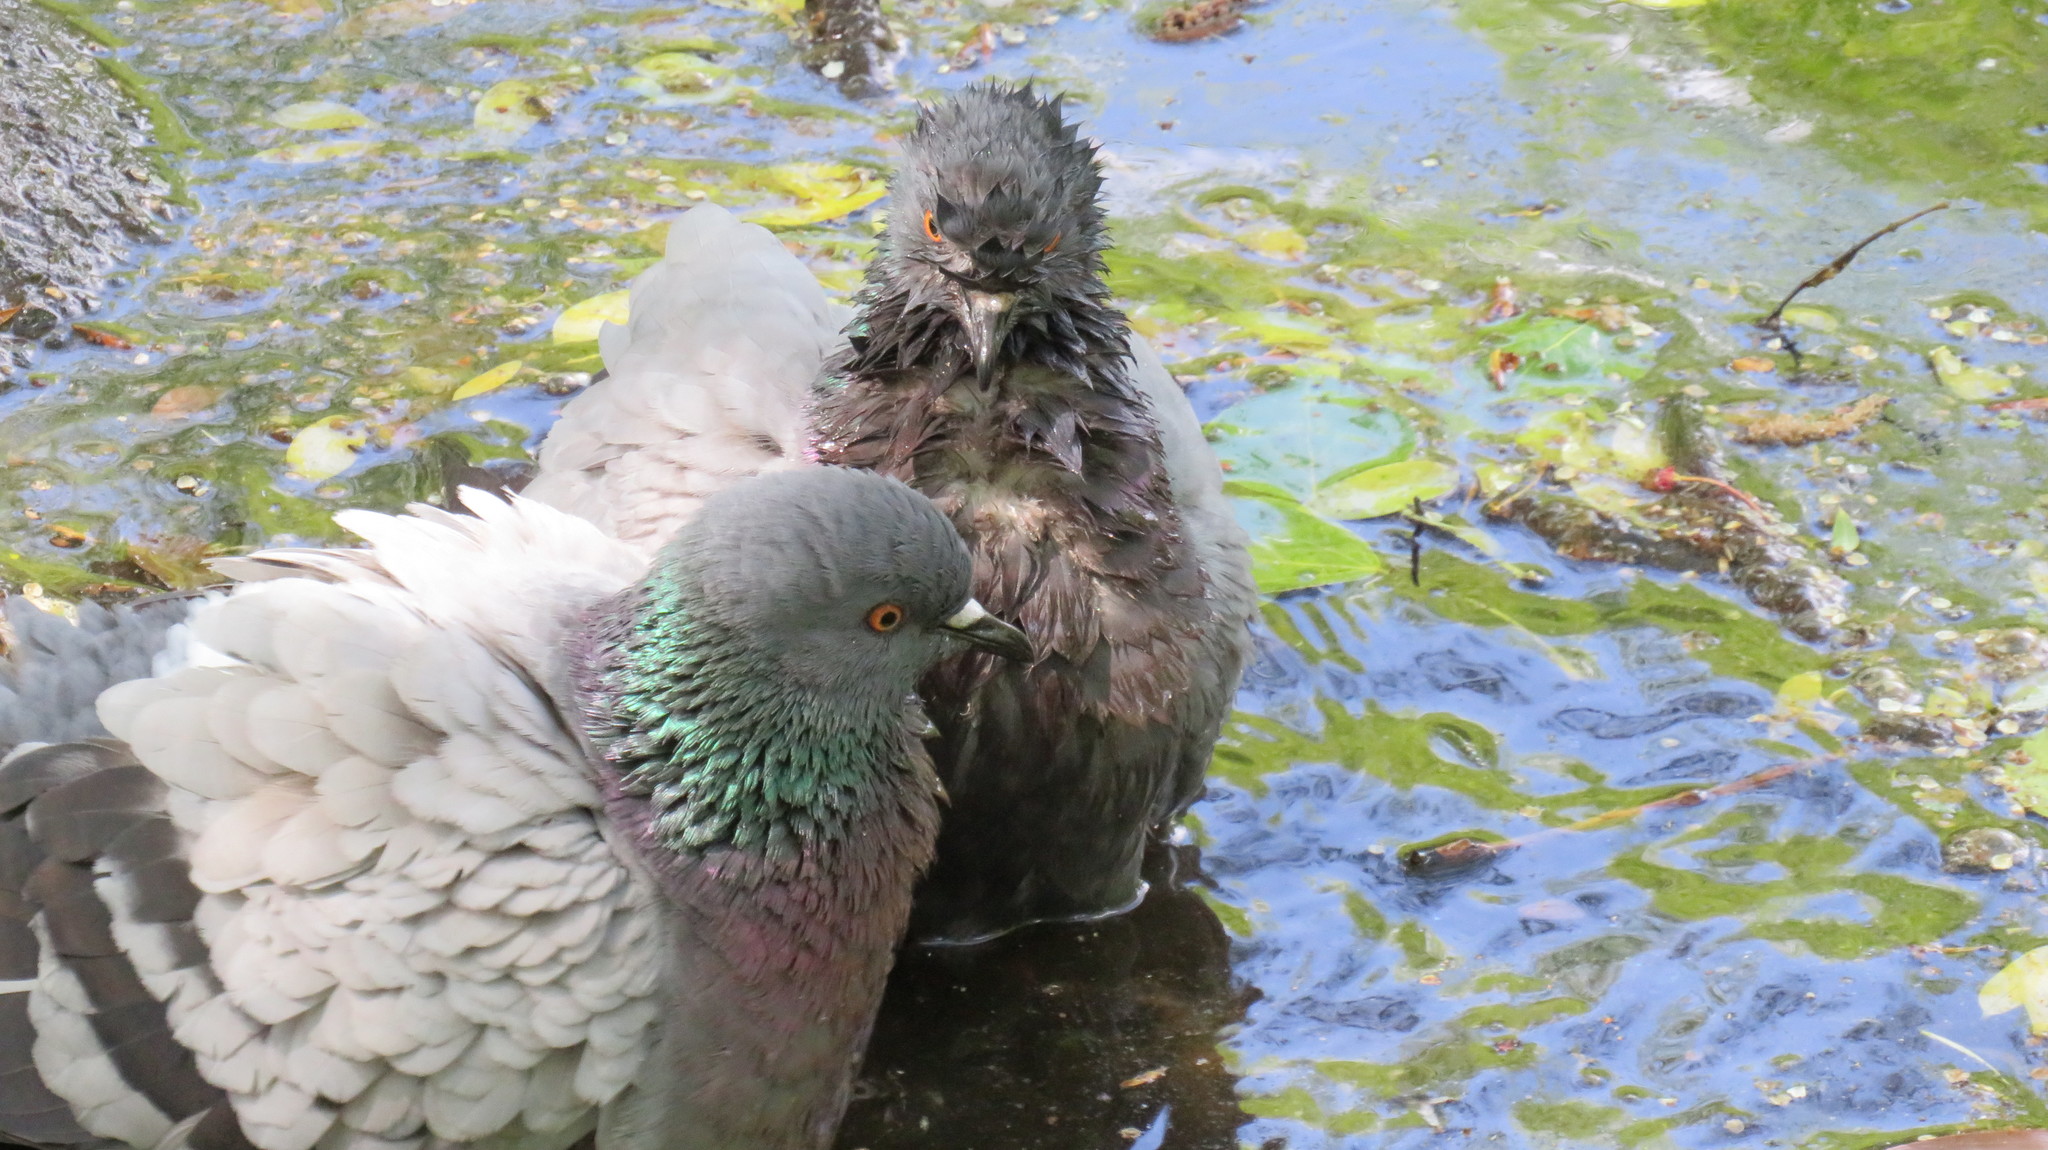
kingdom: Animalia
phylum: Chordata
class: Aves
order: Columbiformes
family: Columbidae
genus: Columba
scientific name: Columba livia
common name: Rock pigeon
